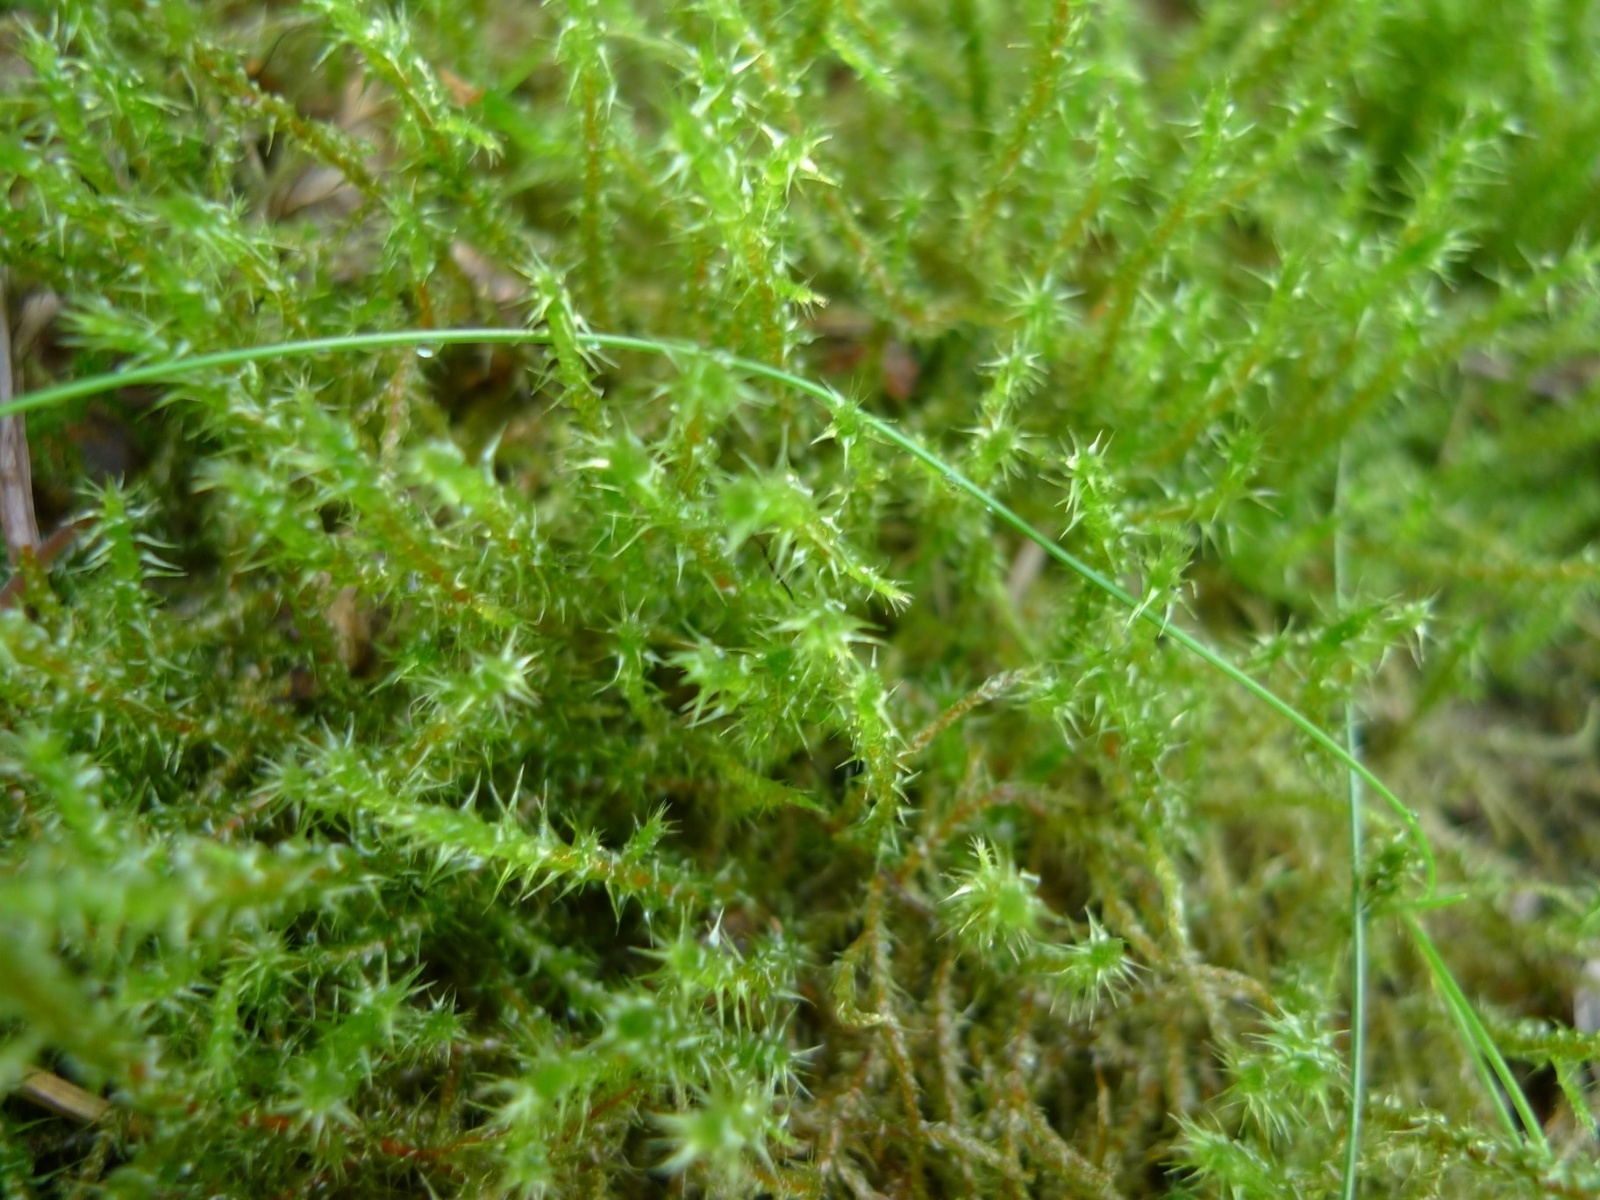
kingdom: Plantae
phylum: Bryophyta
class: Bryopsida
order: Hypnales
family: Hylocomiaceae
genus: Rhytidiadelphus
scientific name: Rhytidiadelphus squarrosus
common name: Springy turf-moss
